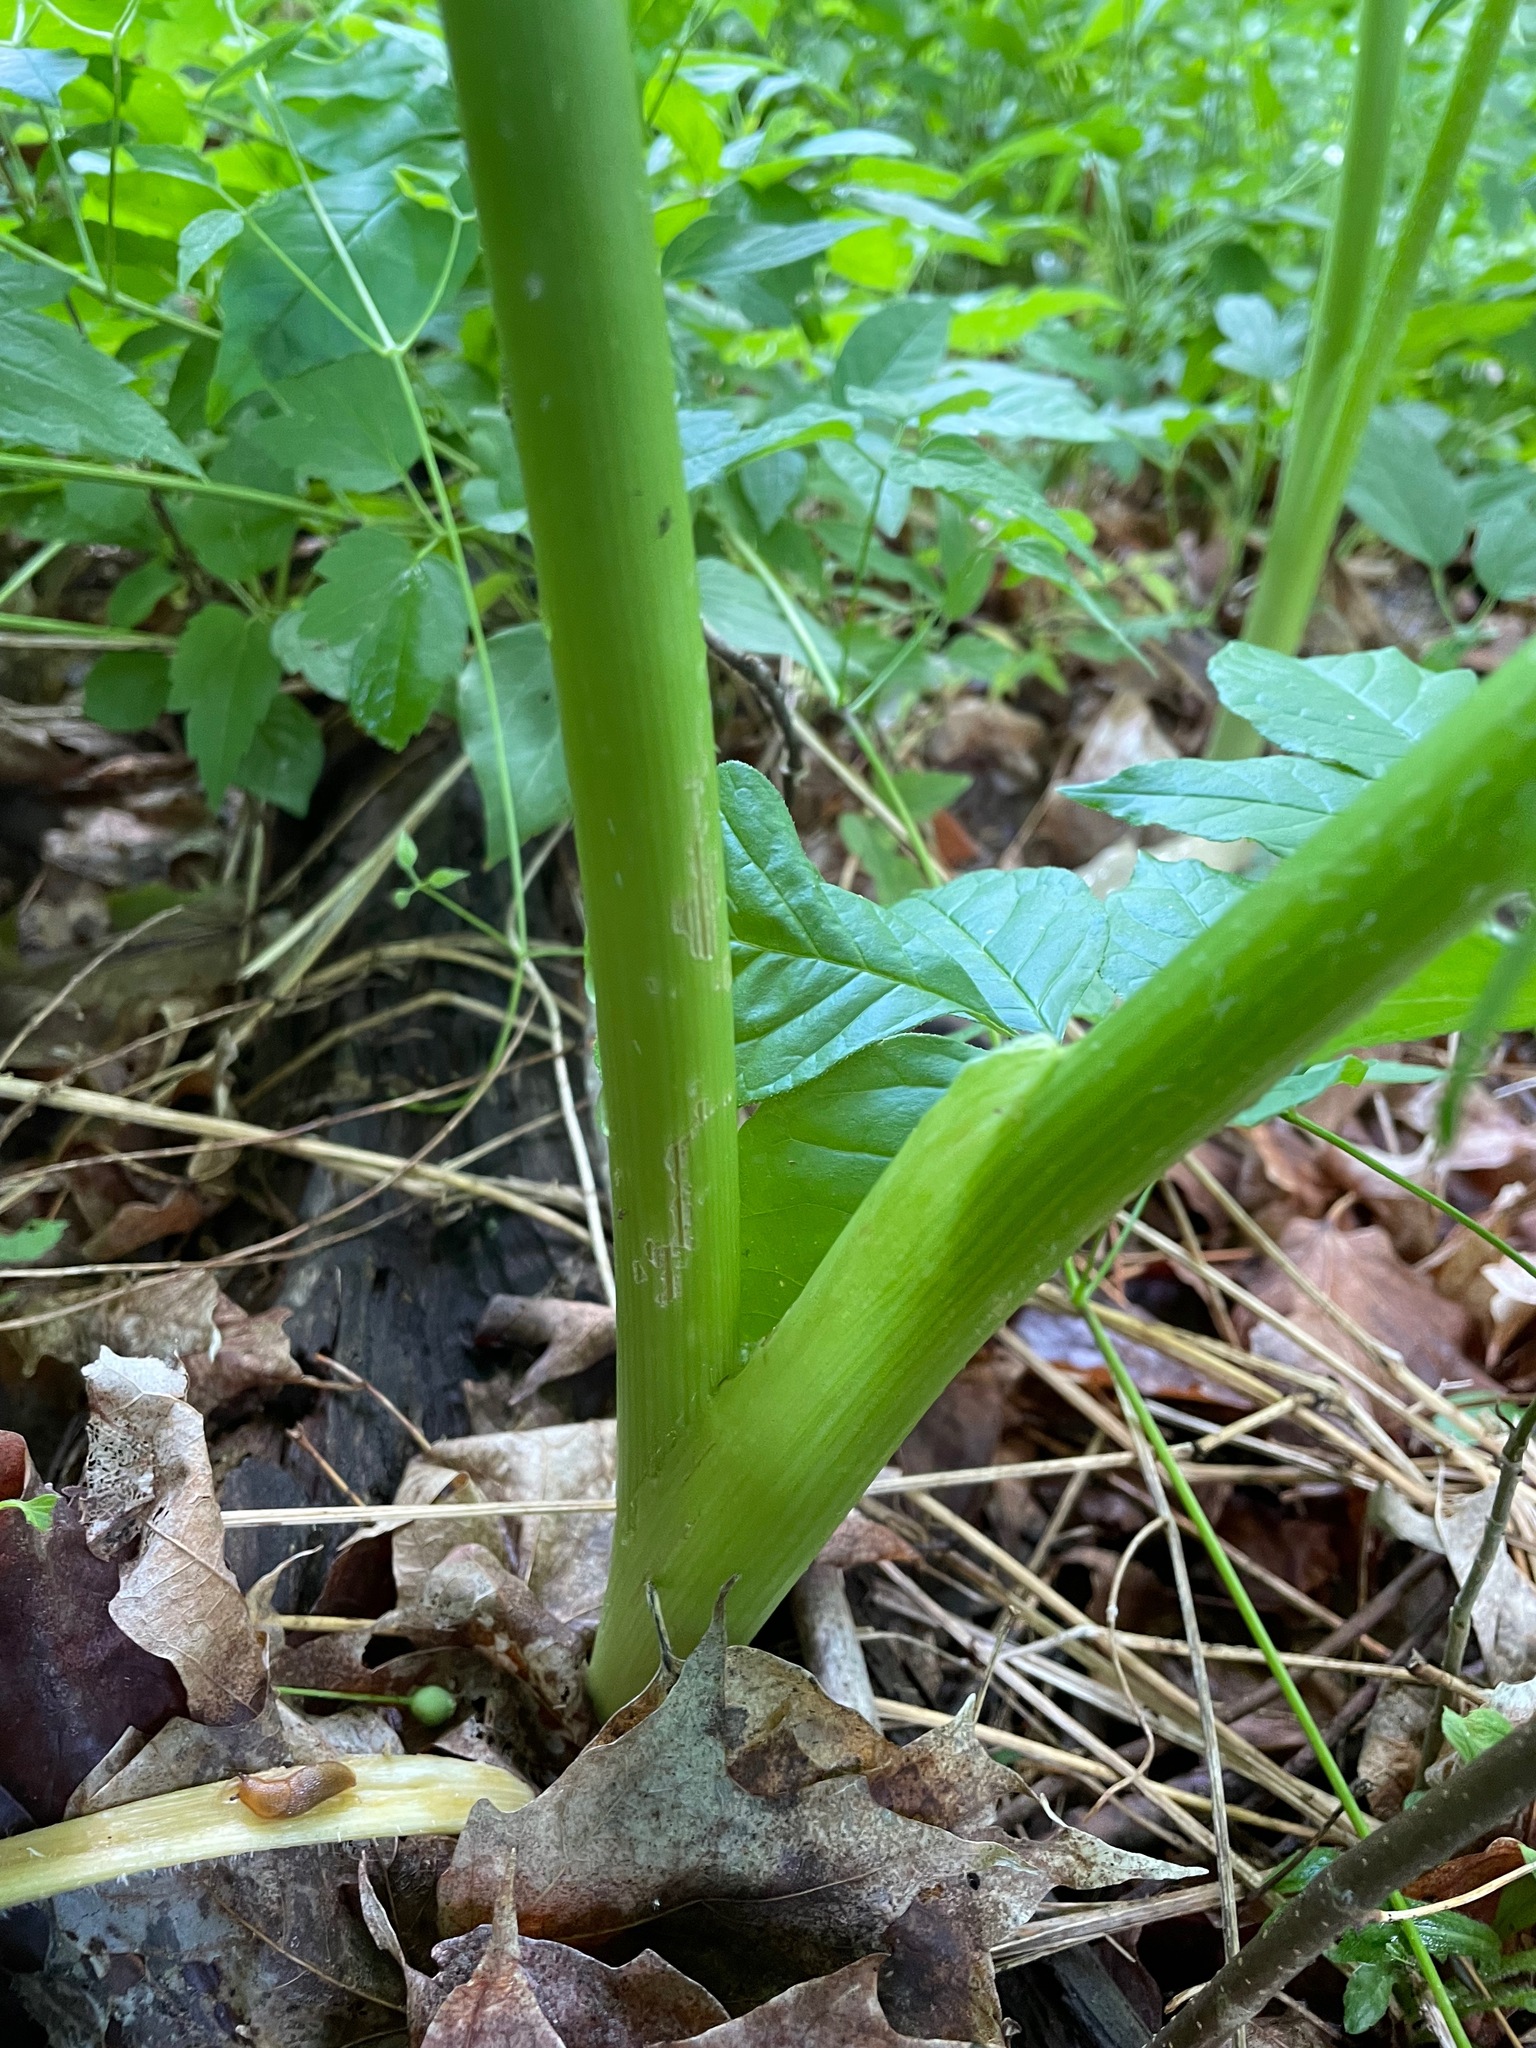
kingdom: Plantae
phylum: Tracheophyta
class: Magnoliopsida
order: Apiales
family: Apiaceae
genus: Heracleum
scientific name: Heracleum maximum
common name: American cow parsnip
